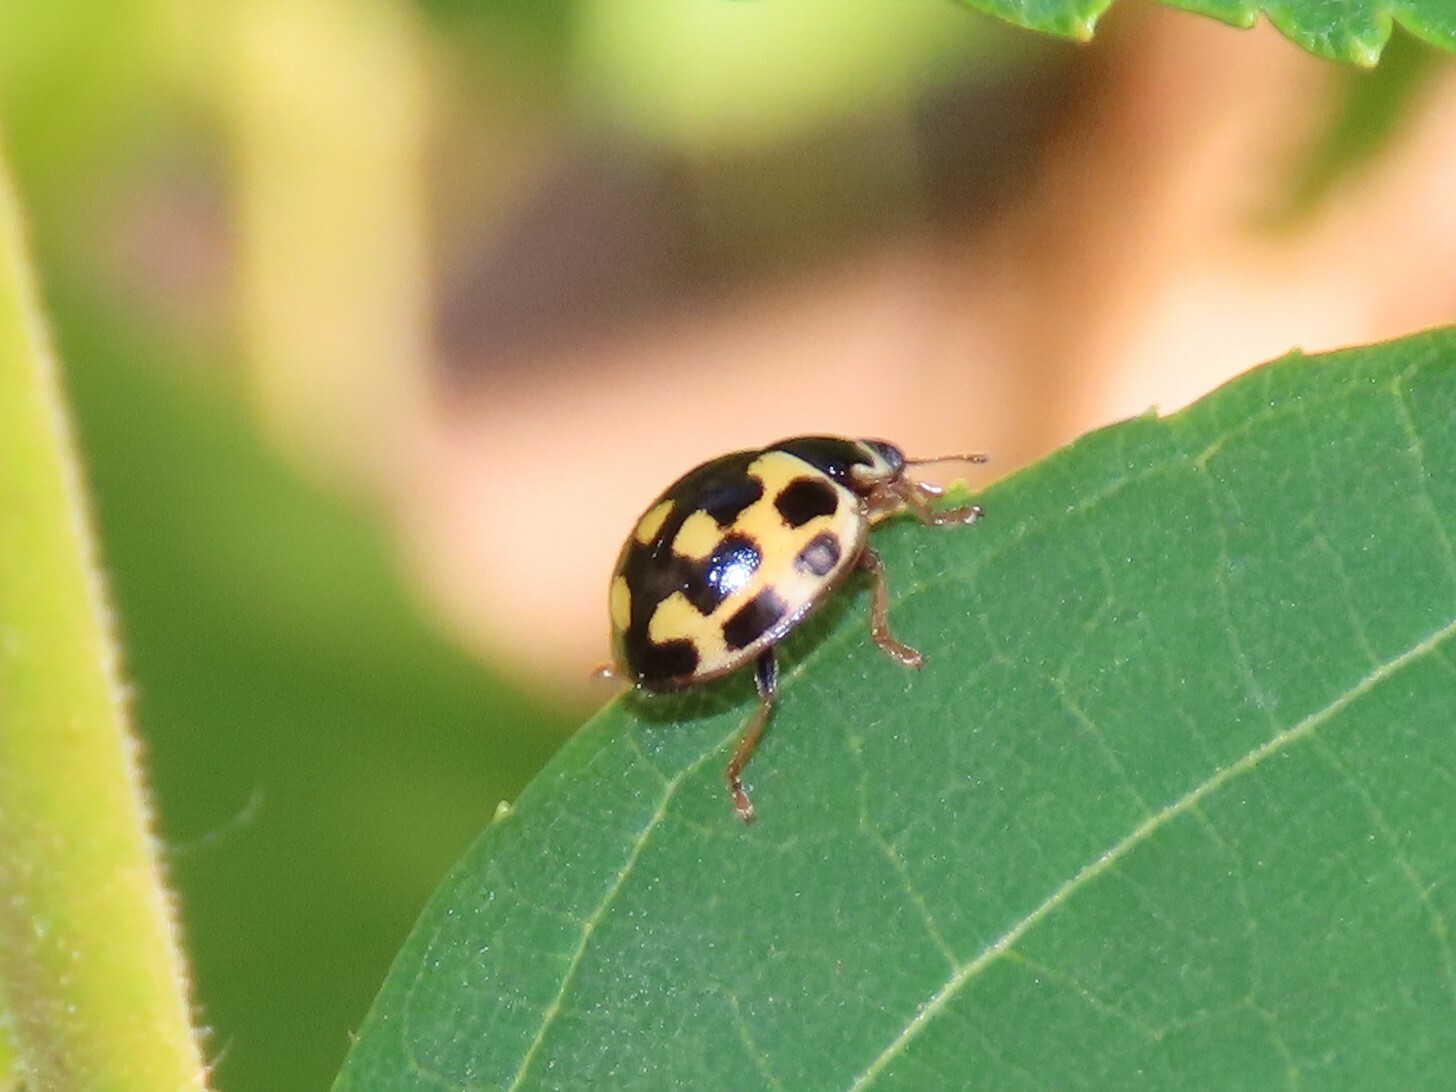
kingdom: Animalia
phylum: Arthropoda
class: Insecta
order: Coleoptera
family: Coccinellidae
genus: Propylaea
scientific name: Propylaea quatuordecimpunctata
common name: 14-spotted ladybird beetle
